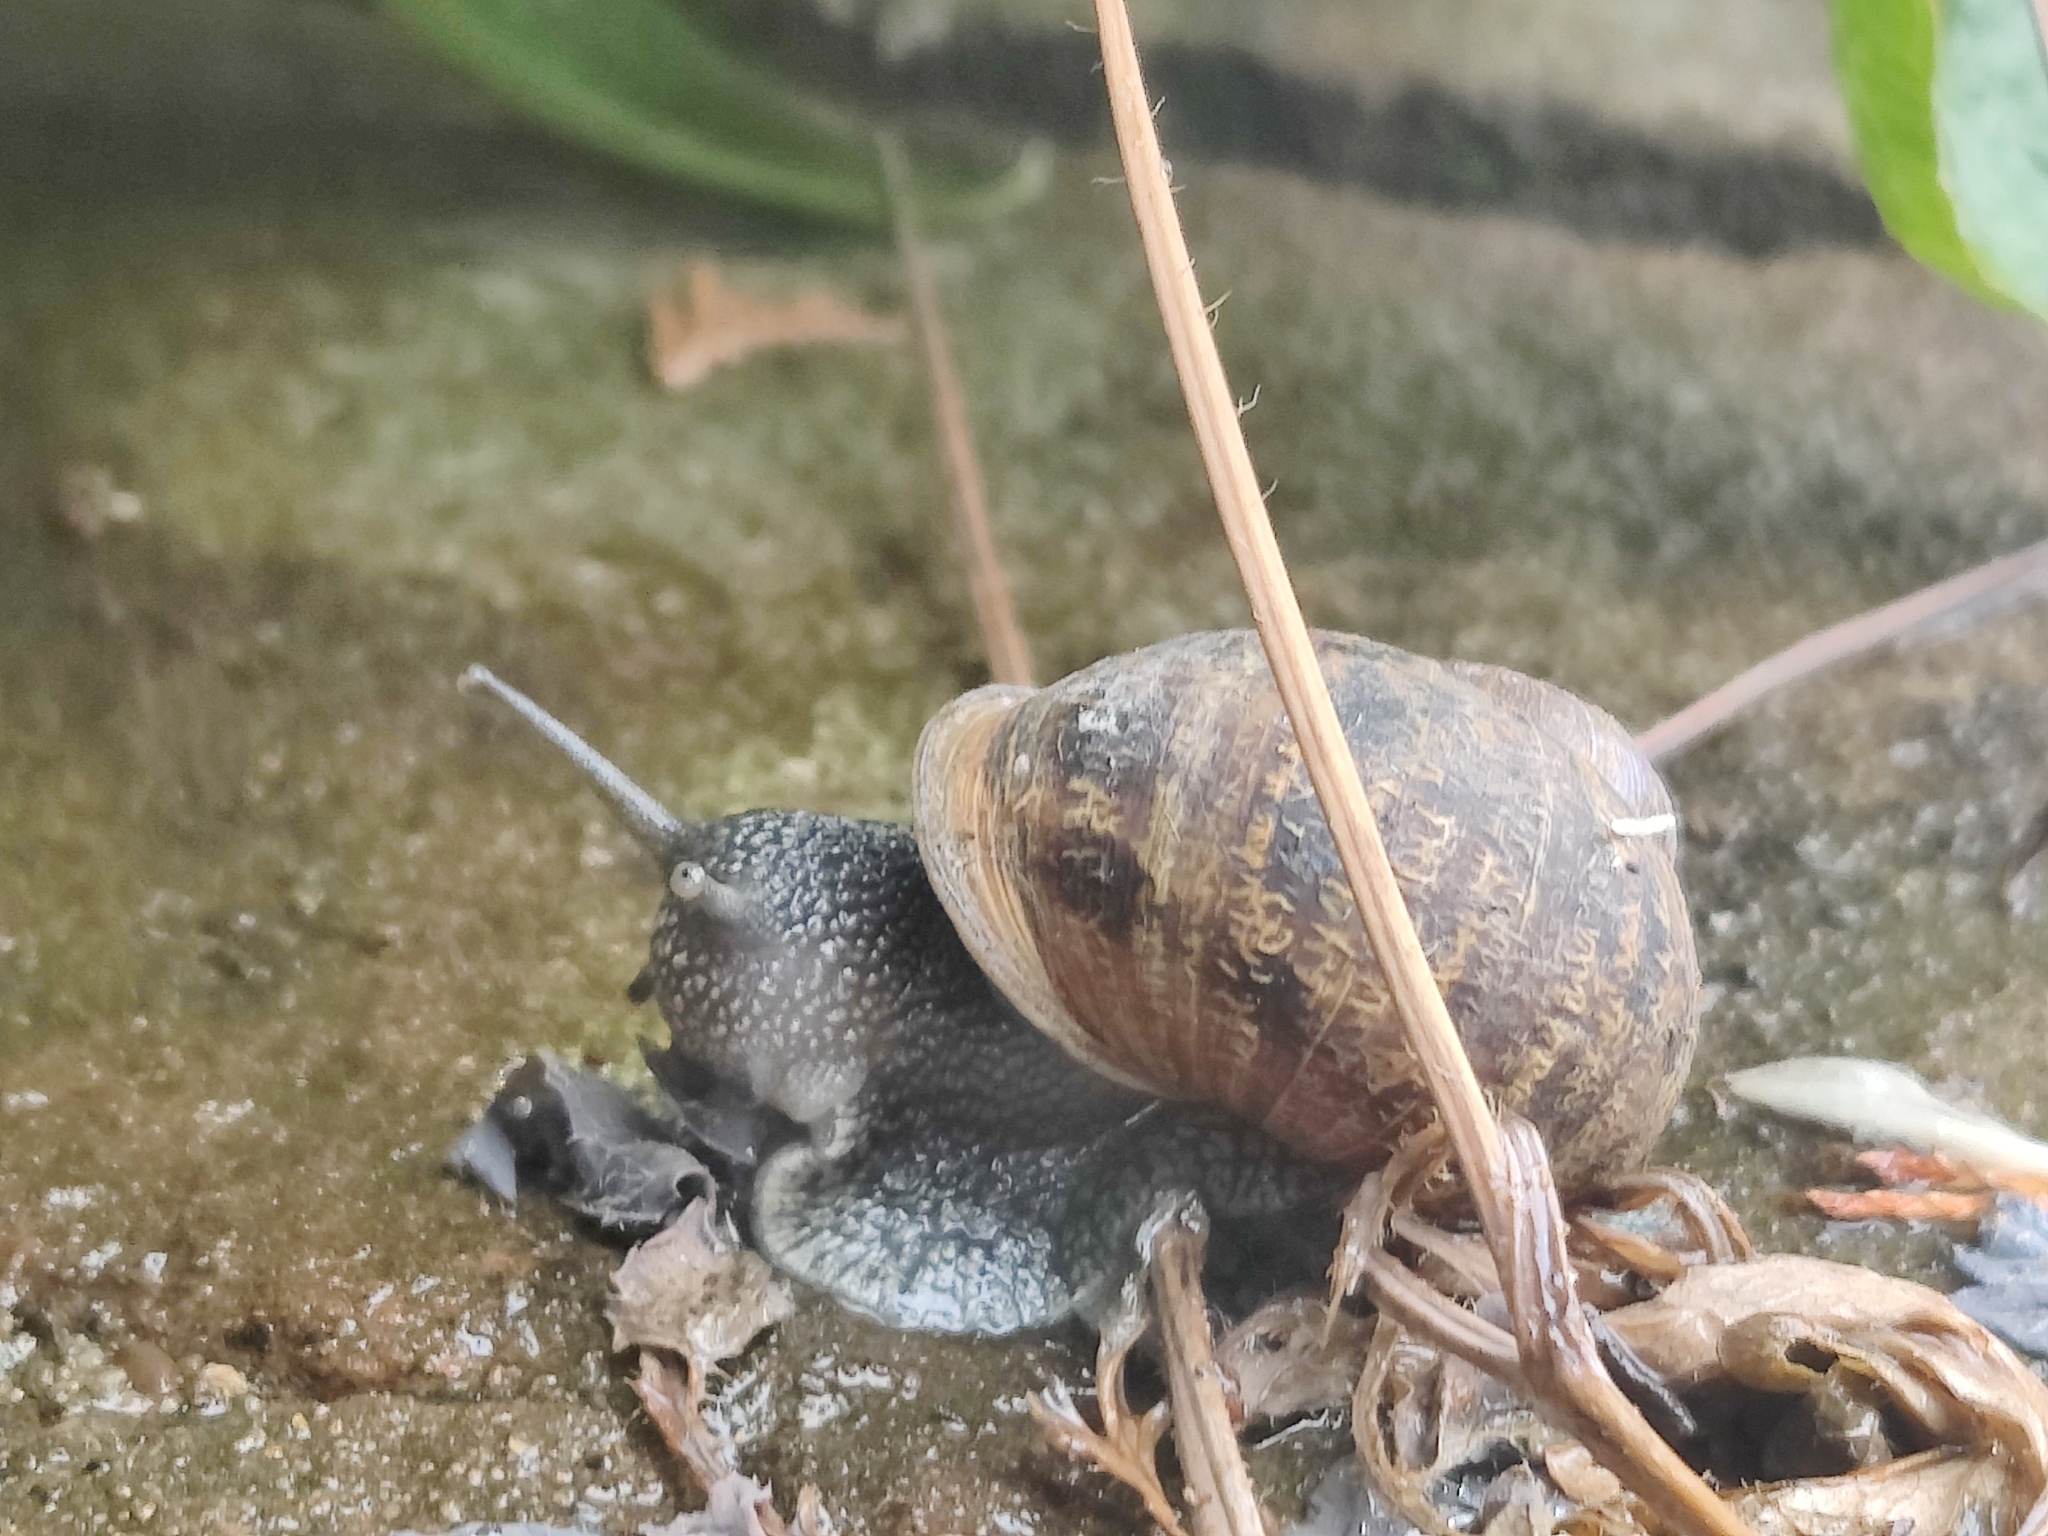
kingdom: Animalia
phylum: Mollusca
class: Gastropoda
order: Stylommatophora
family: Helicidae
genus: Cornu
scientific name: Cornu aspersum
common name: Brown garden snail
